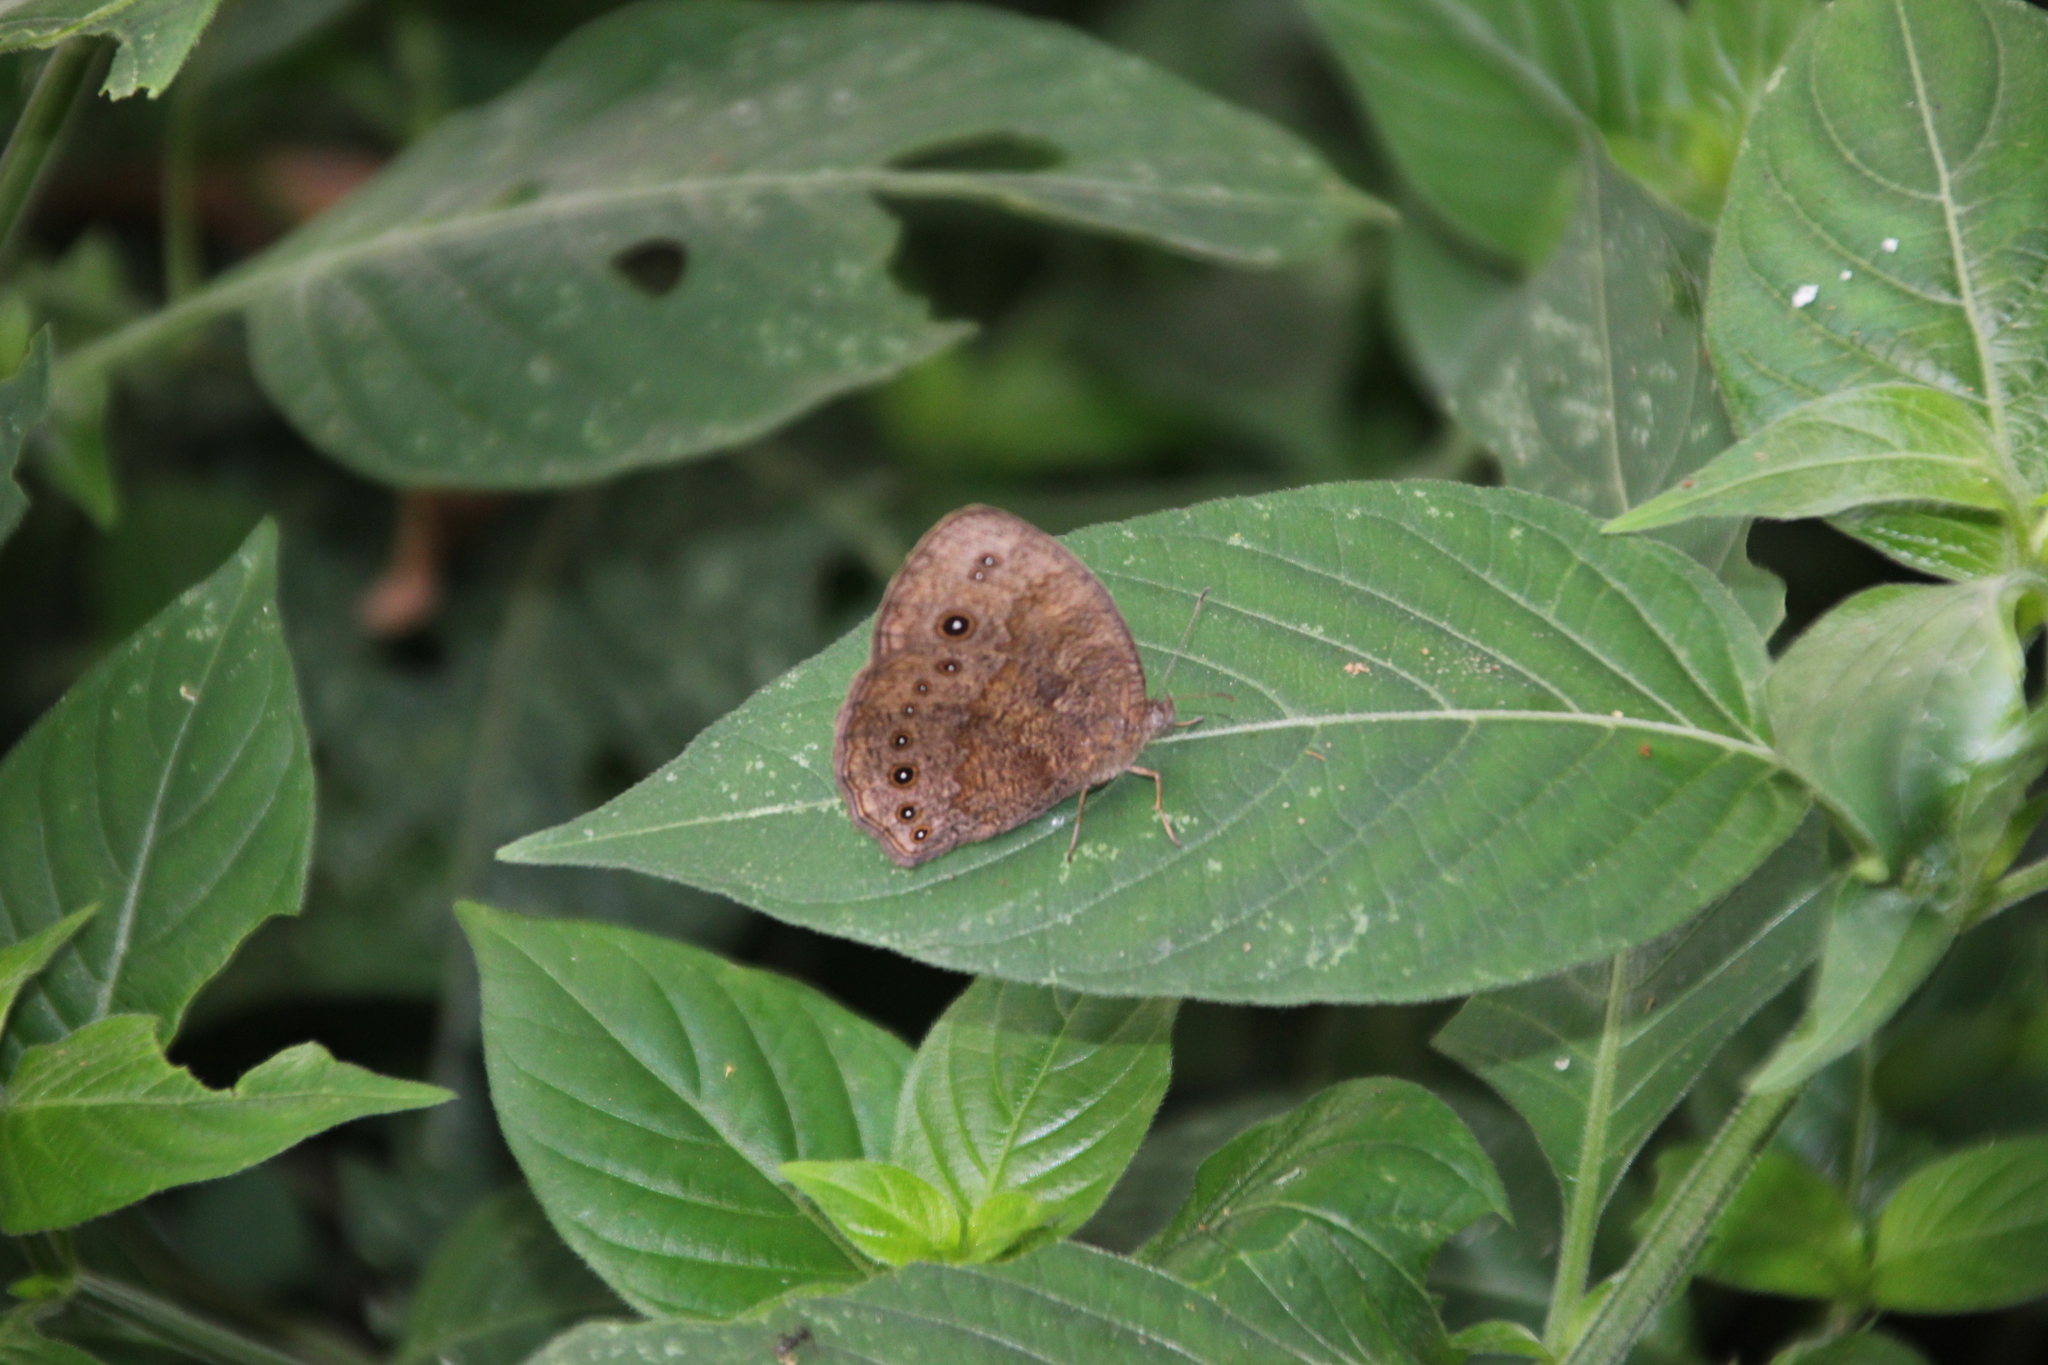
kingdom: Animalia
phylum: Arthropoda
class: Insecta
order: Lepidoptera
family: Nymphalidae
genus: Mycalesis
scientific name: Mycalesis vulgaris
